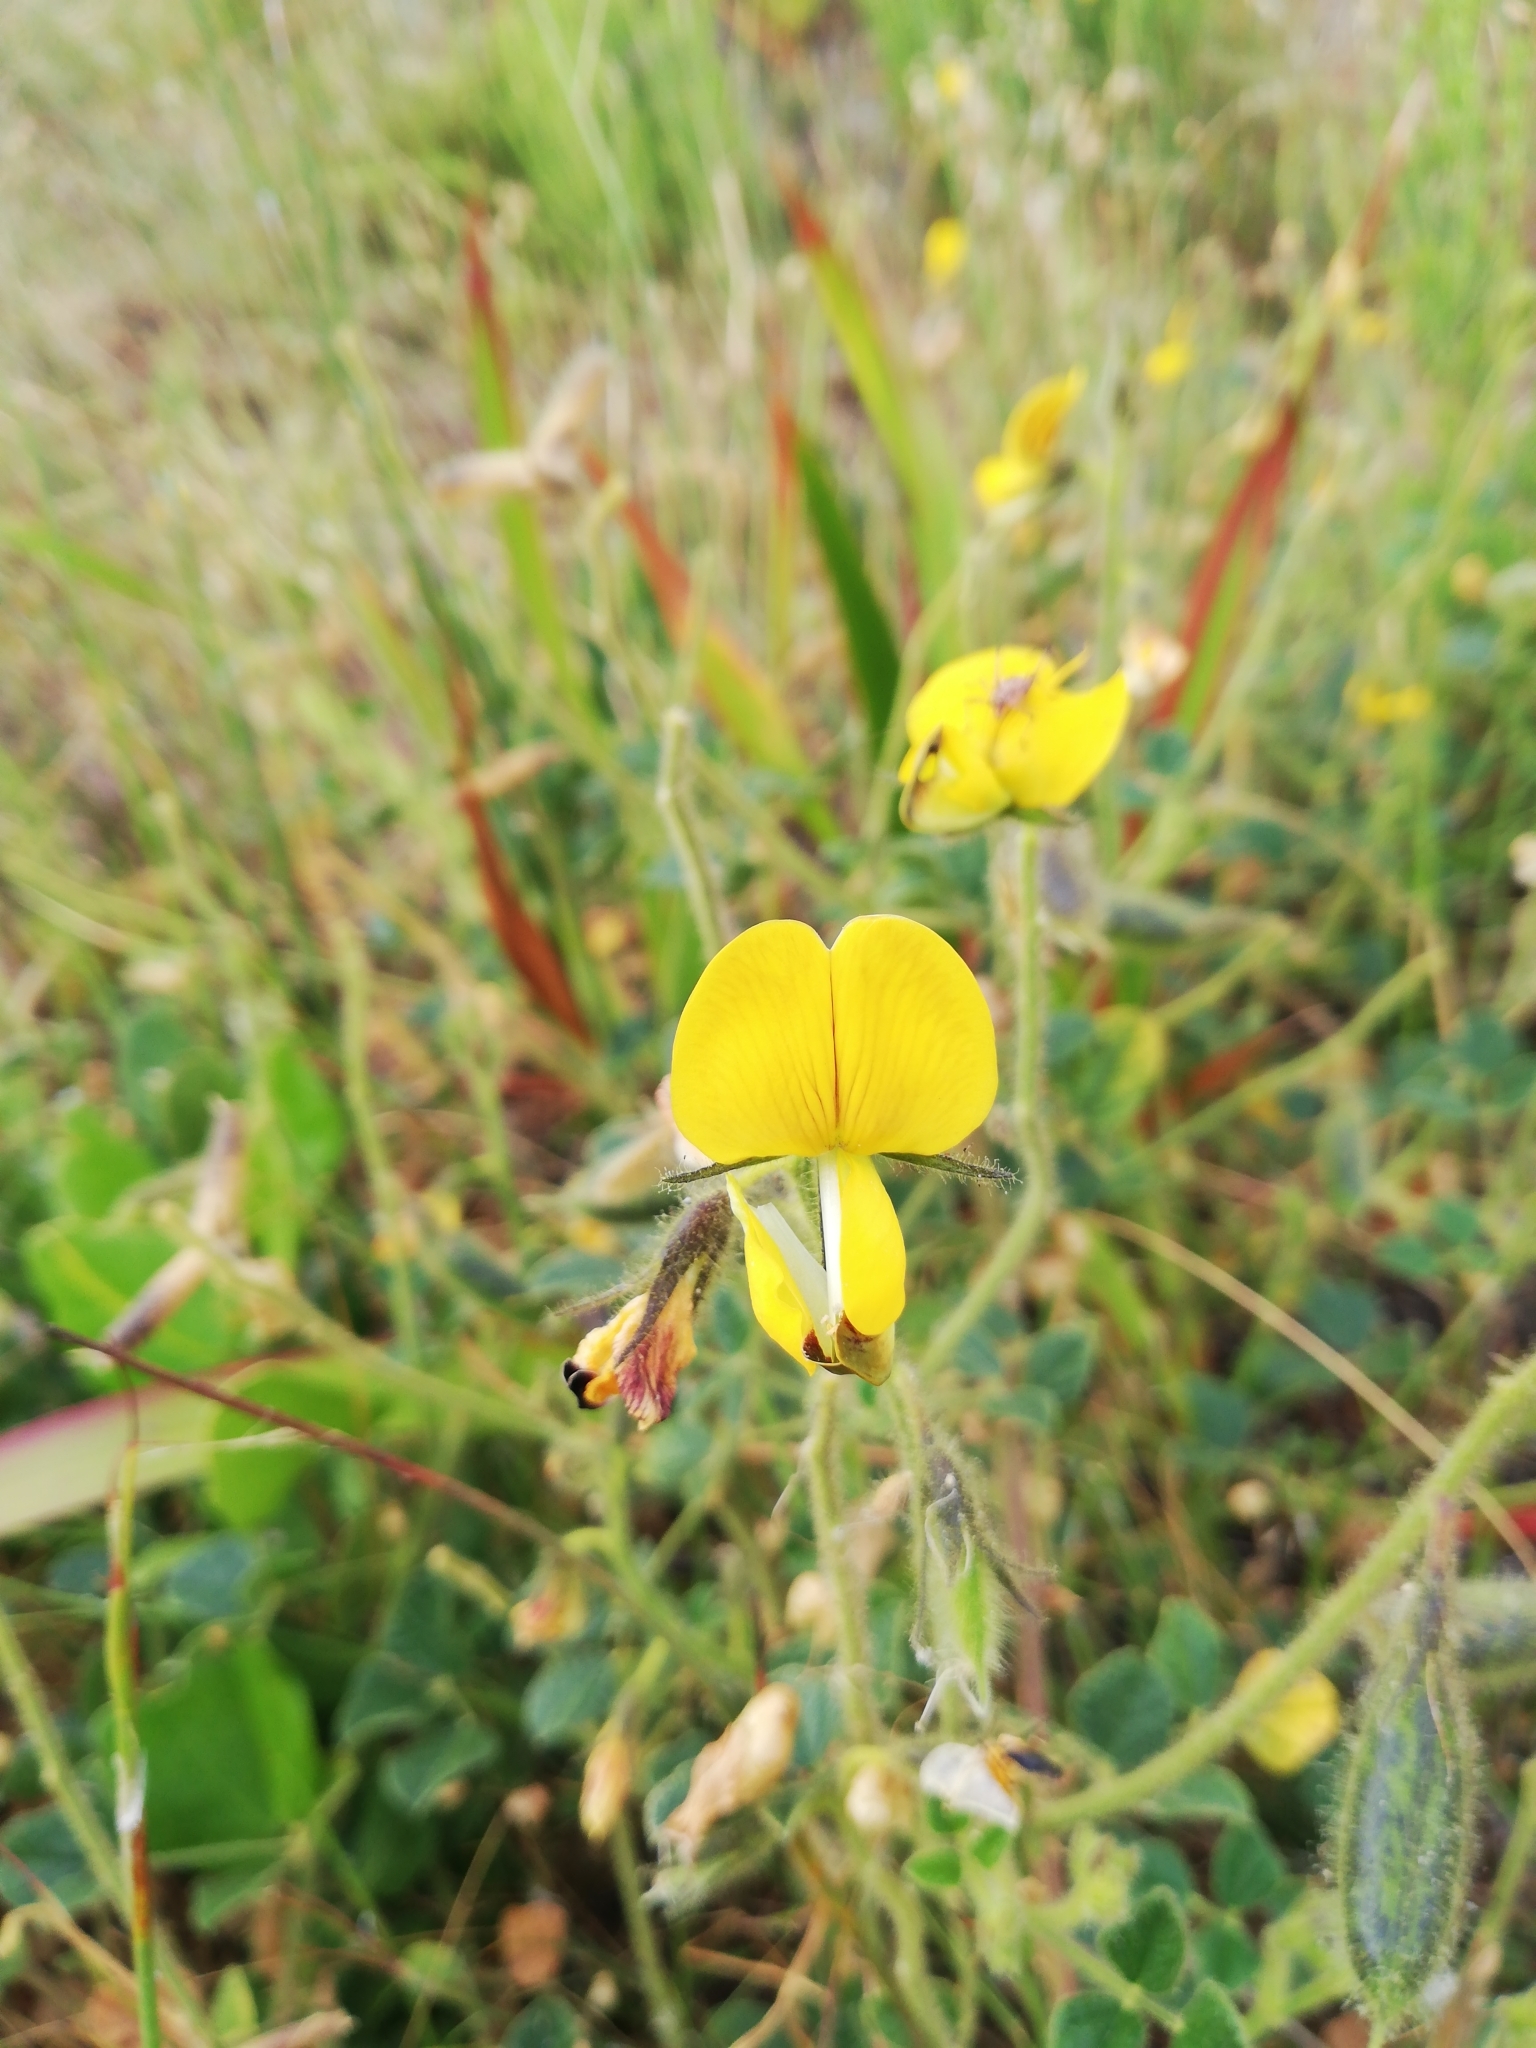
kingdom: Plantae
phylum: Tracheophyta
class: Magnoliopsida
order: Fabales
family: Fabaceae
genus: Bolusafra
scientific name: Bolusafra bituminosa
